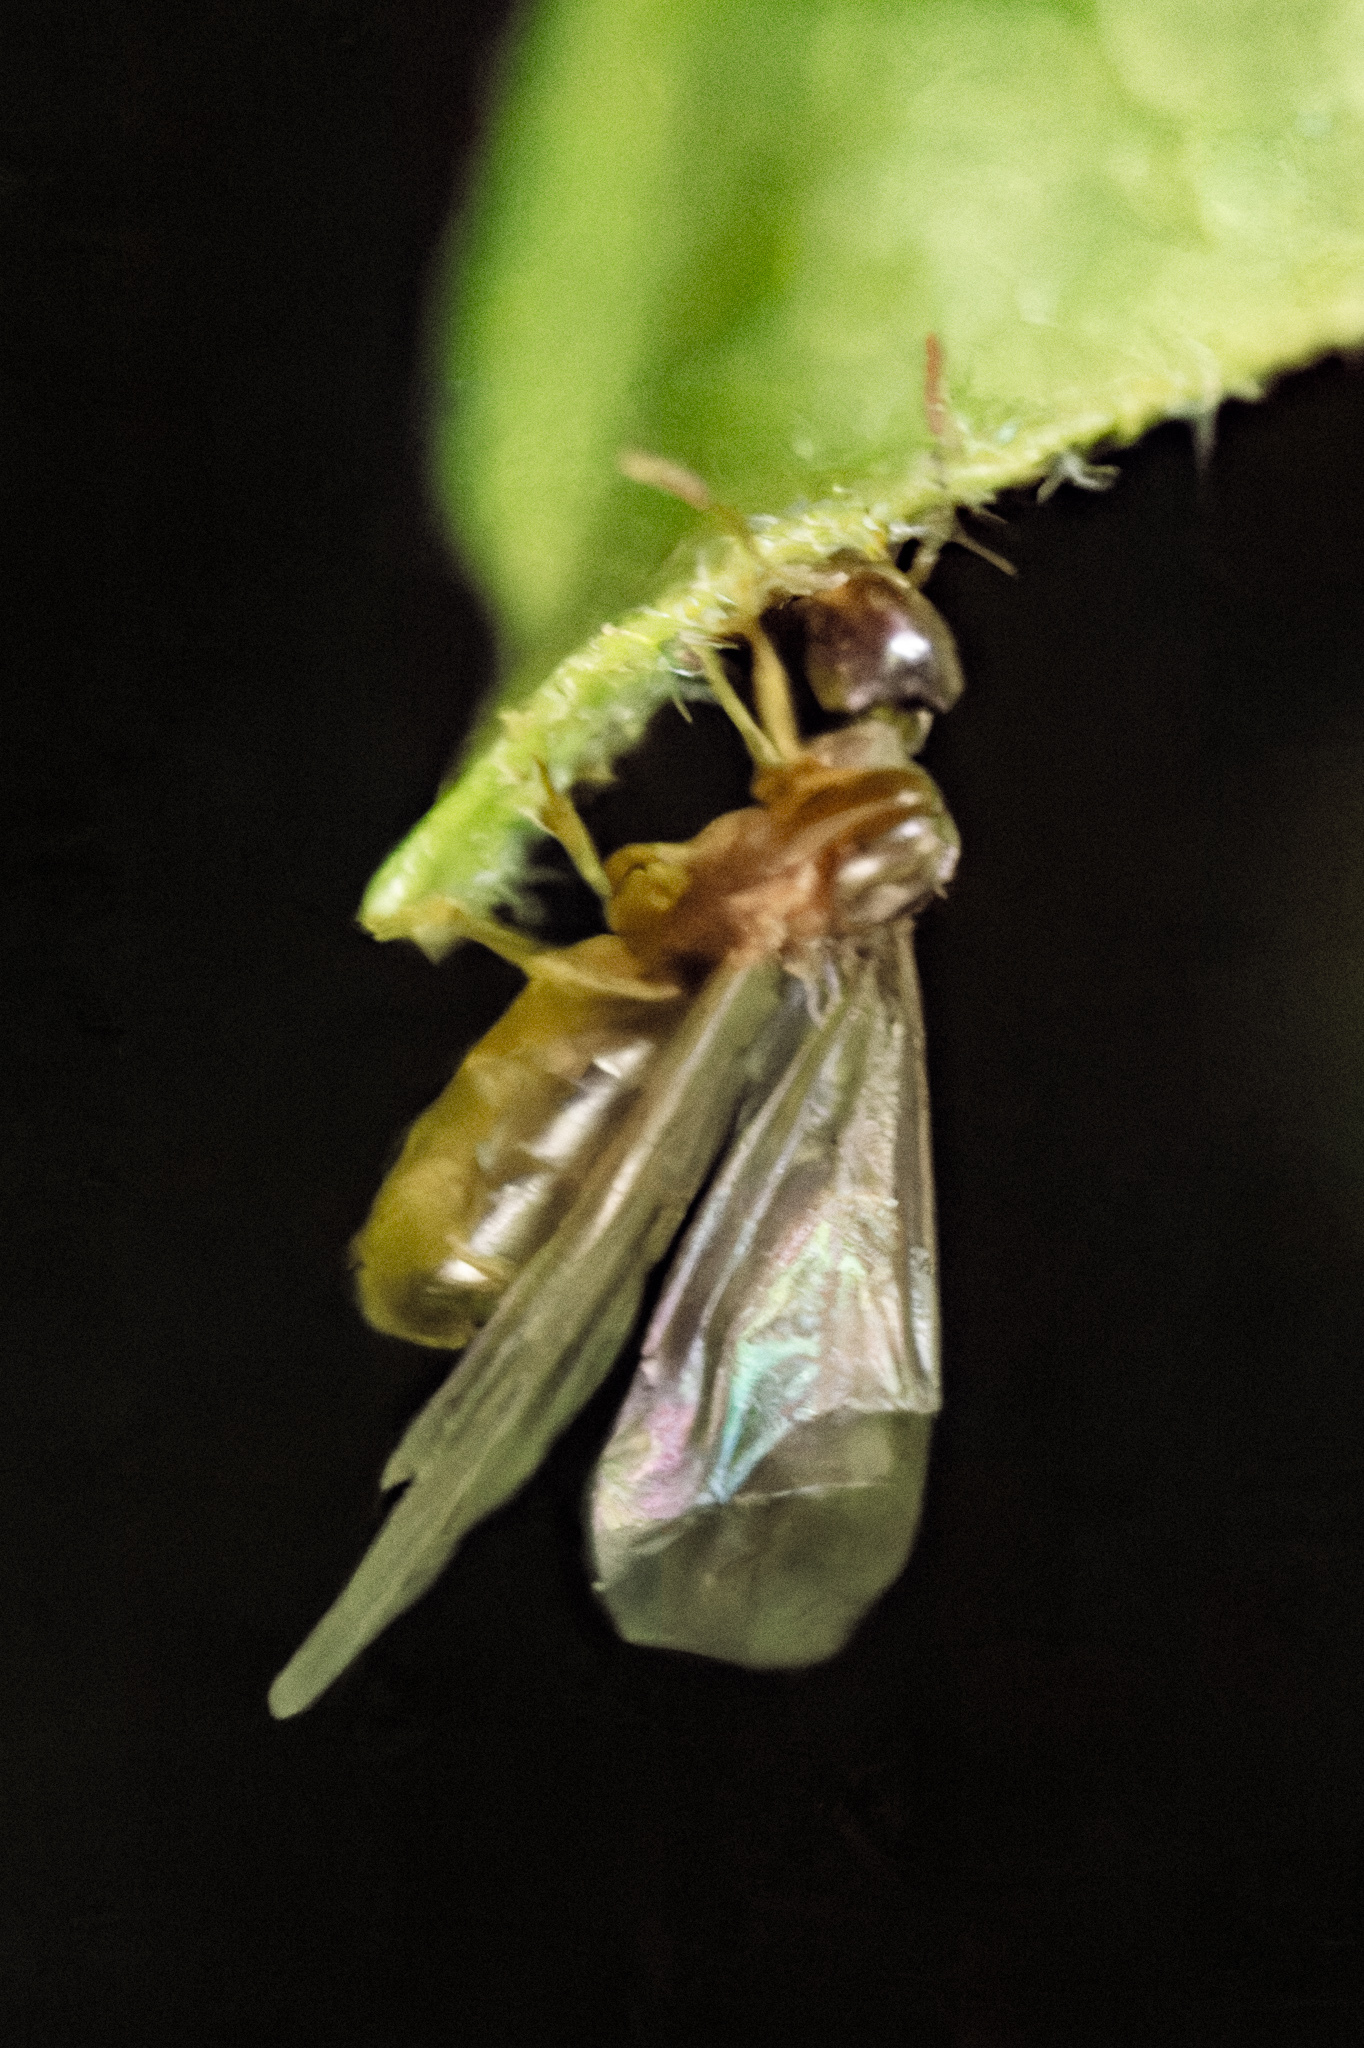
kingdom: Animalia
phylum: Arthropoda
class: Insecta
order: Hymenoptera
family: Formicidae
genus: Brachymyrmex
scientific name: Brachymyrmex depilis
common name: Hairless rover ant
